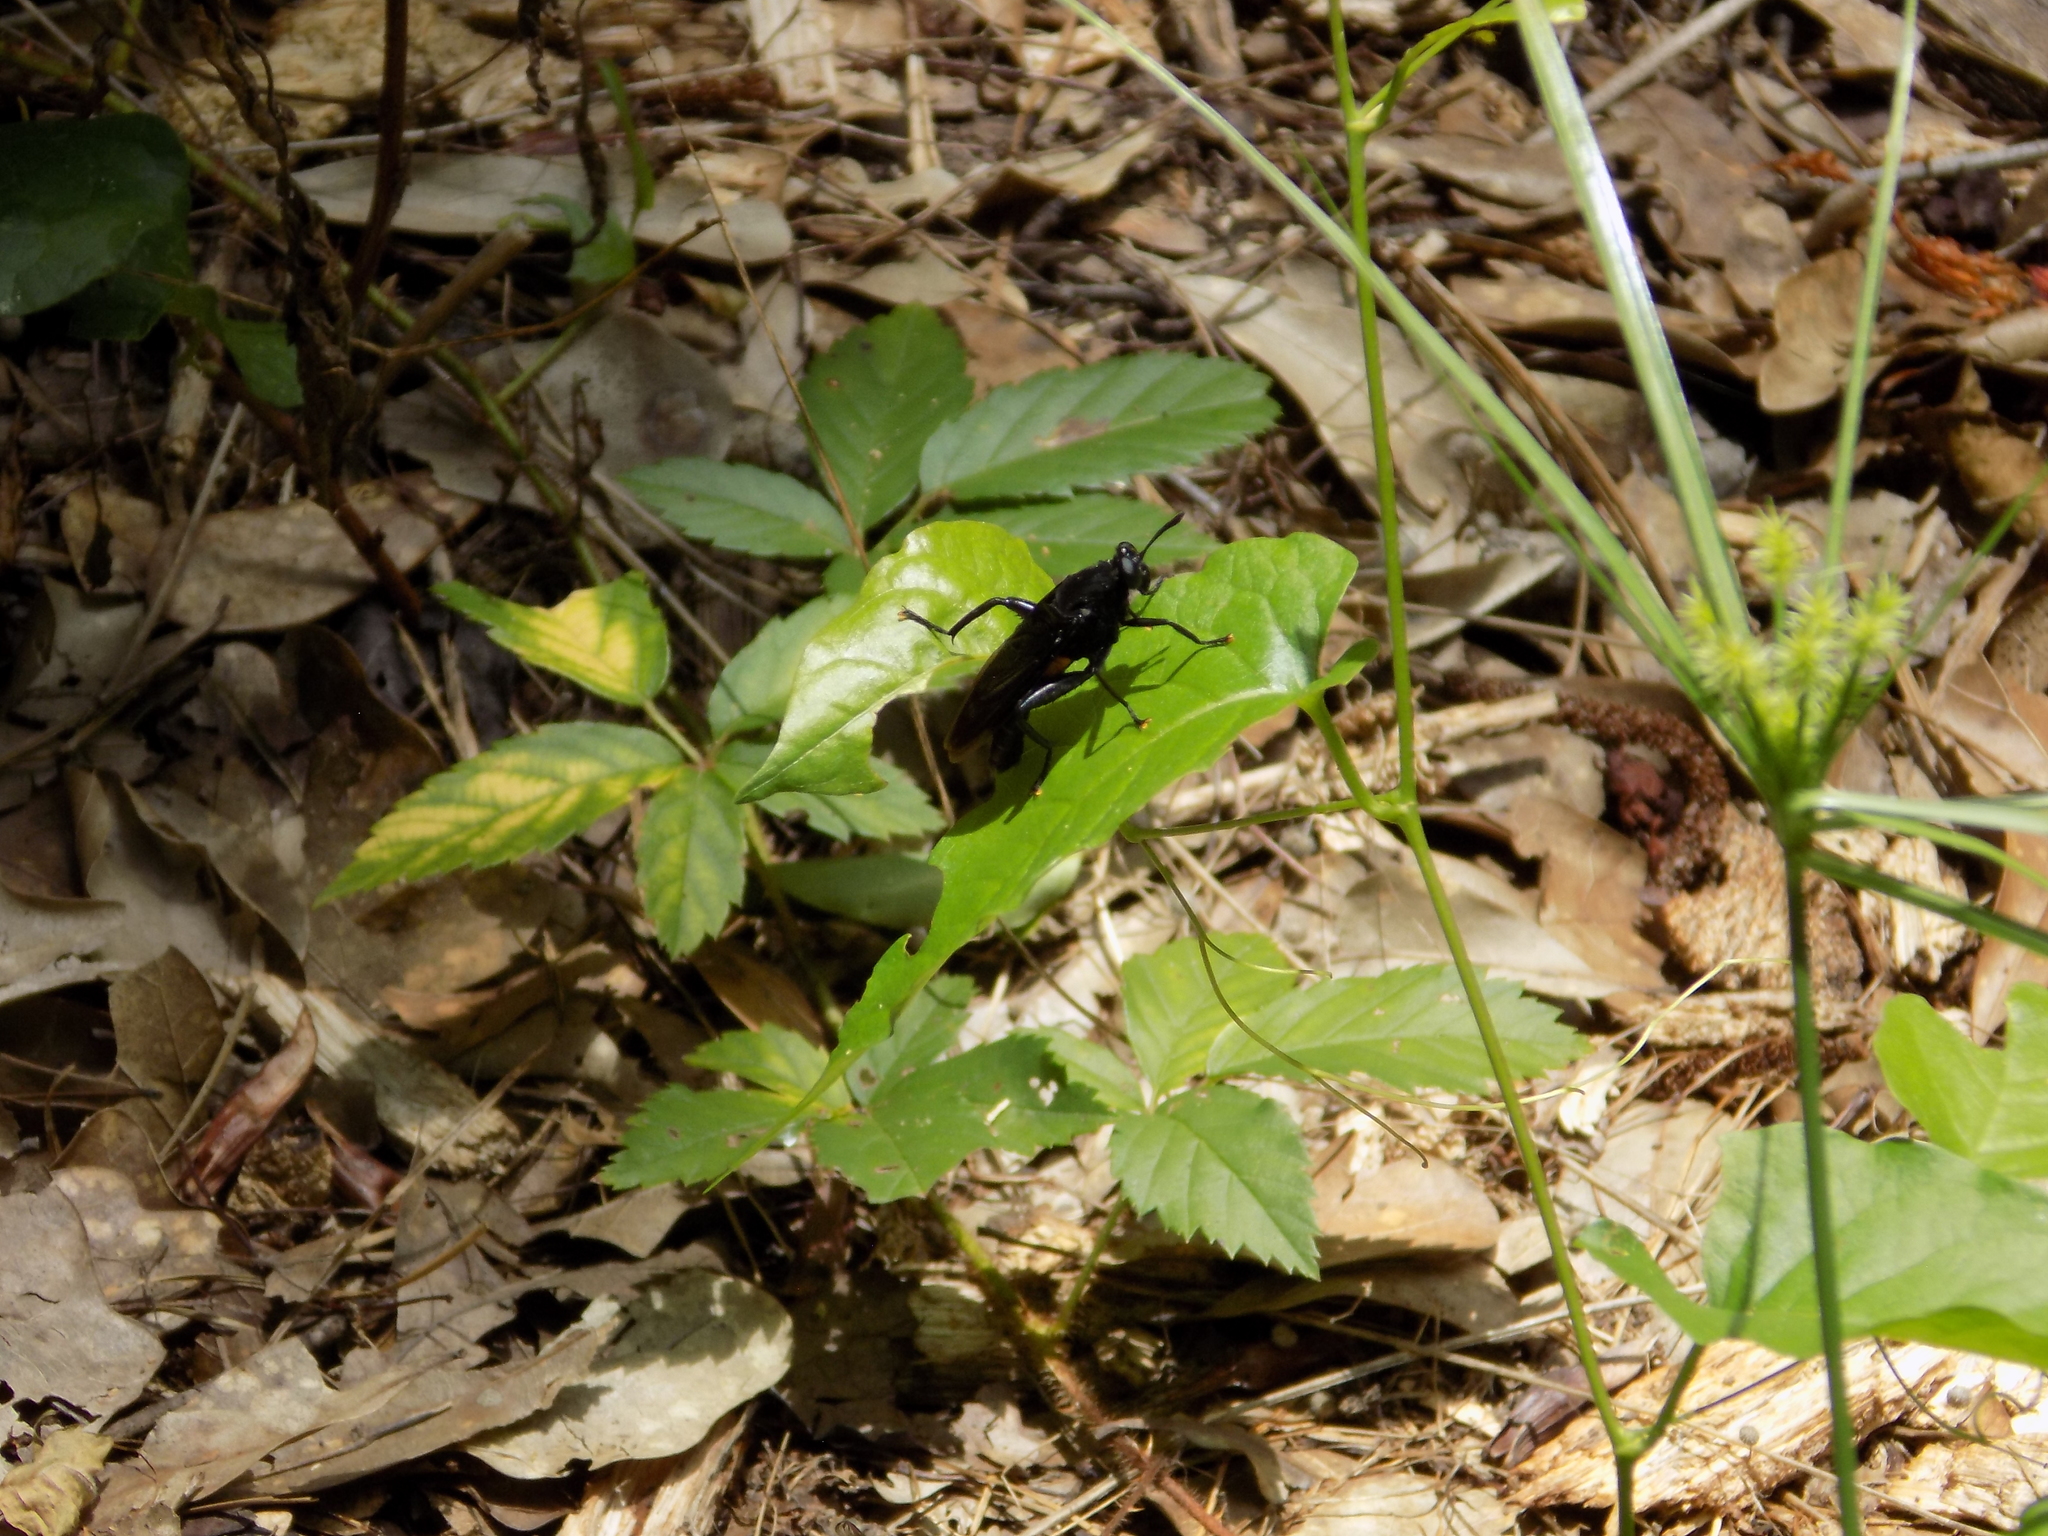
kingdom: Animalia
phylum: Arthropoda
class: Insecta
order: Diptera
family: Mydidae
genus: Mydas
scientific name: Mydas clavatus
